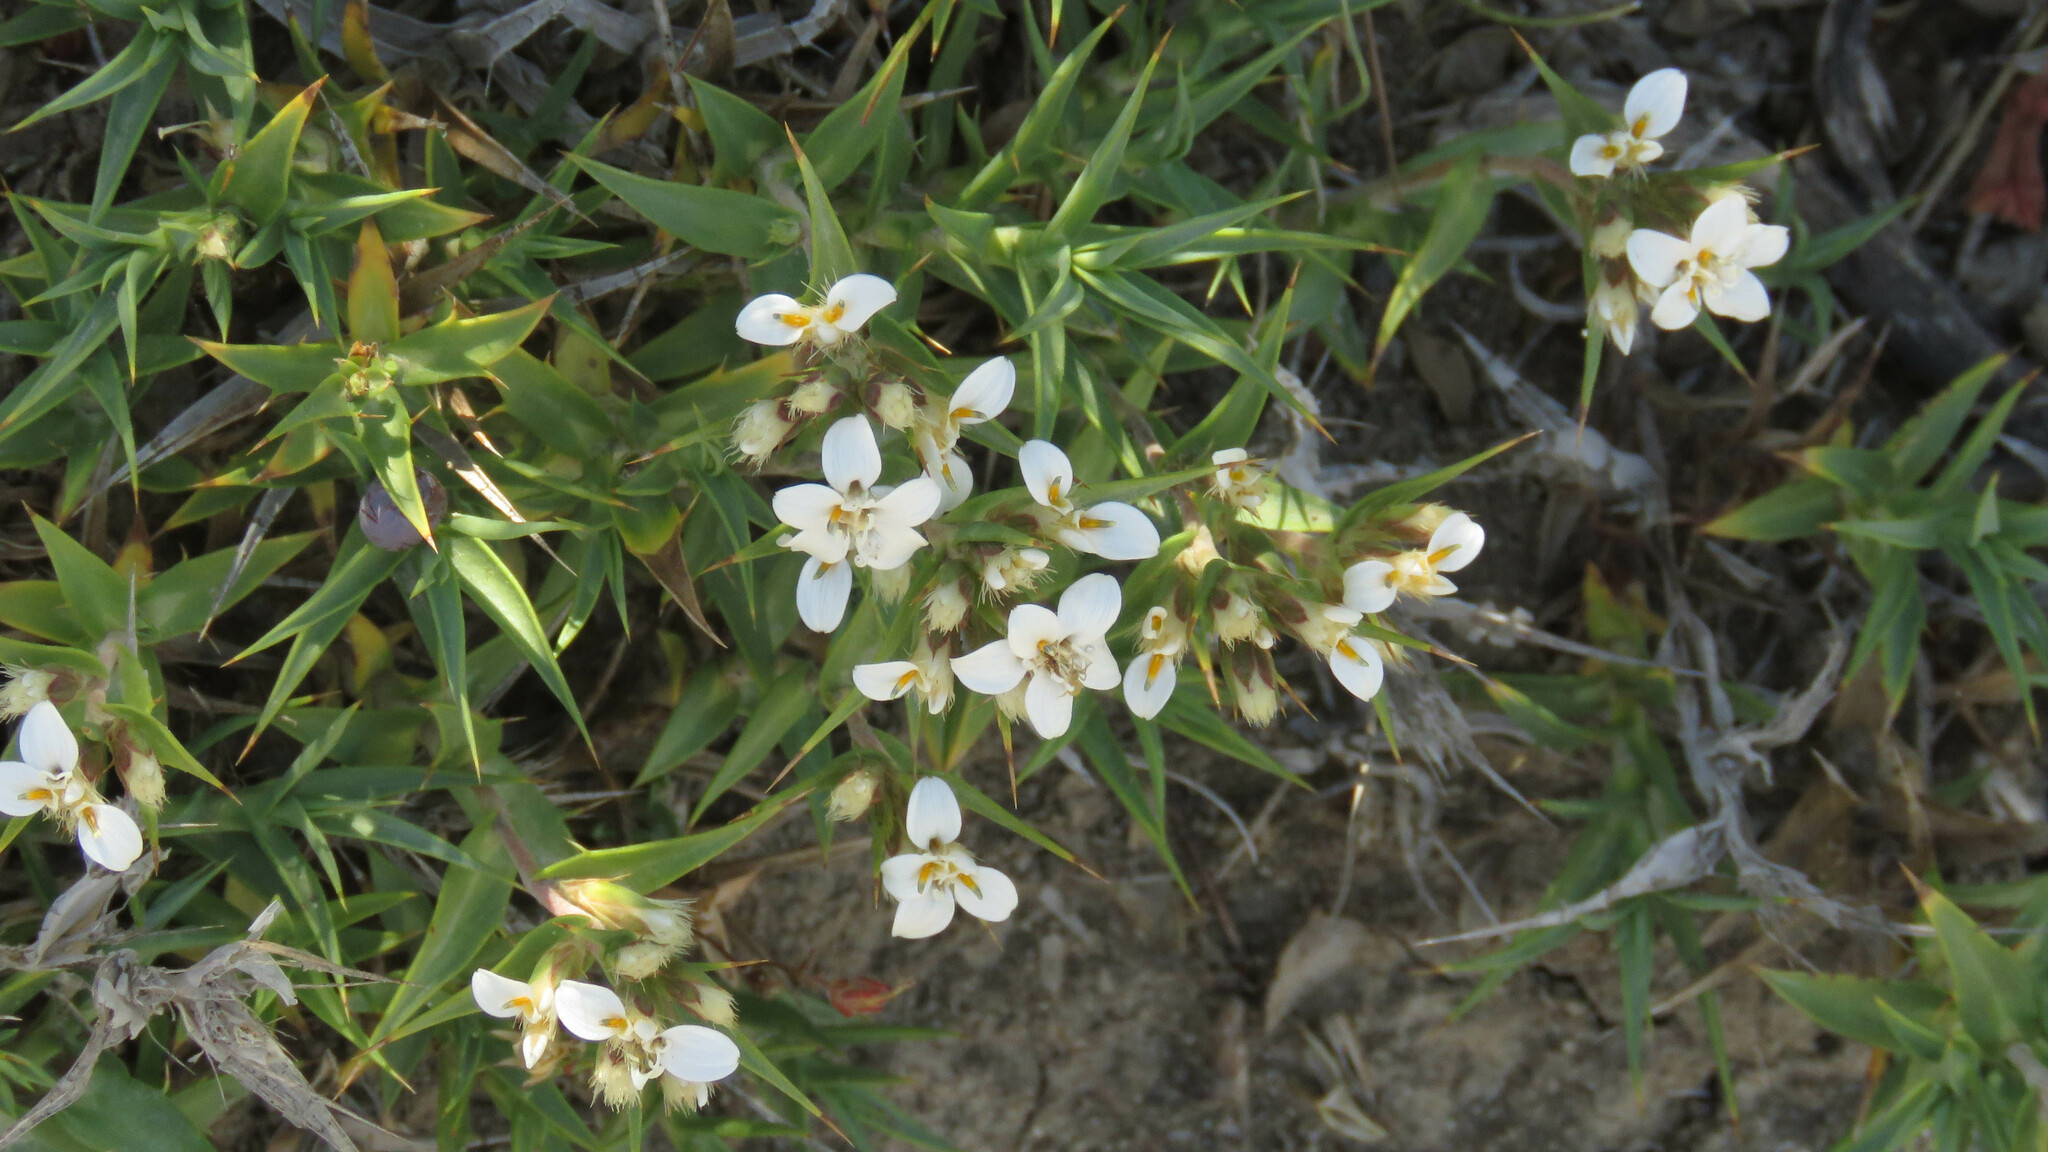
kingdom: Plantae
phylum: Tracheophyta
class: Magnoliopsida
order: Asterales
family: Asteraceae
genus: Nassauvia
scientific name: Nassauvia aculeata
